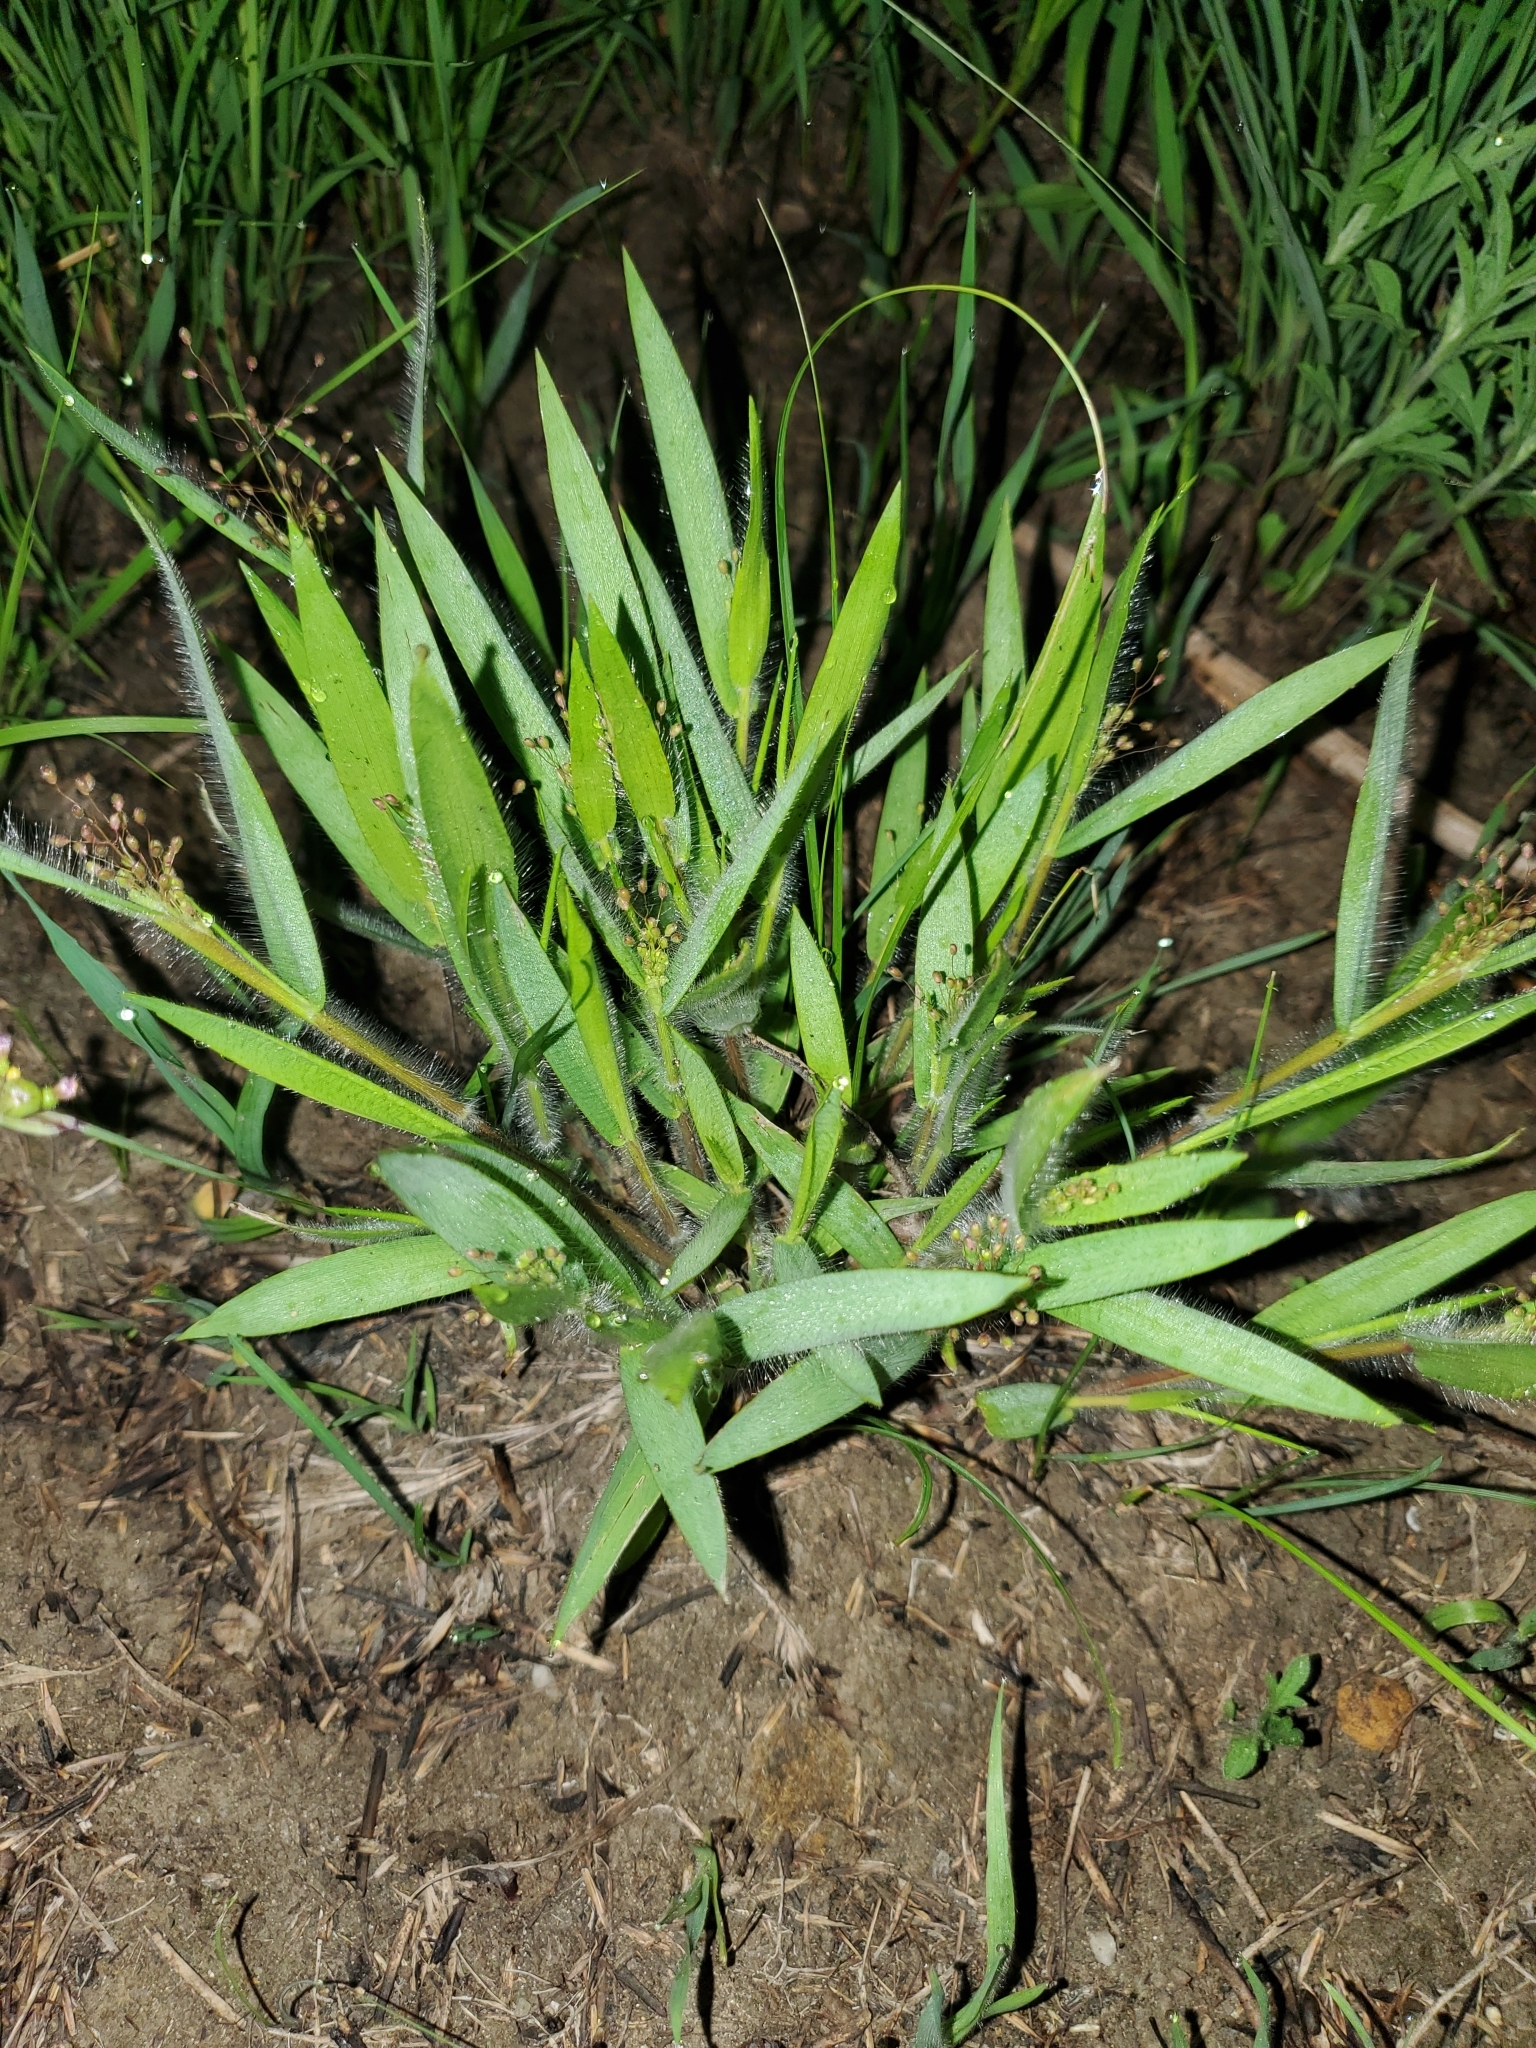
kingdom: Plantae
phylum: Tracheophyta
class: Liliopsida
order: Poales
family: Poaceae
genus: Dichanthelium
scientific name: Dichanthelium praecocius
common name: Early-branching panicgrass
